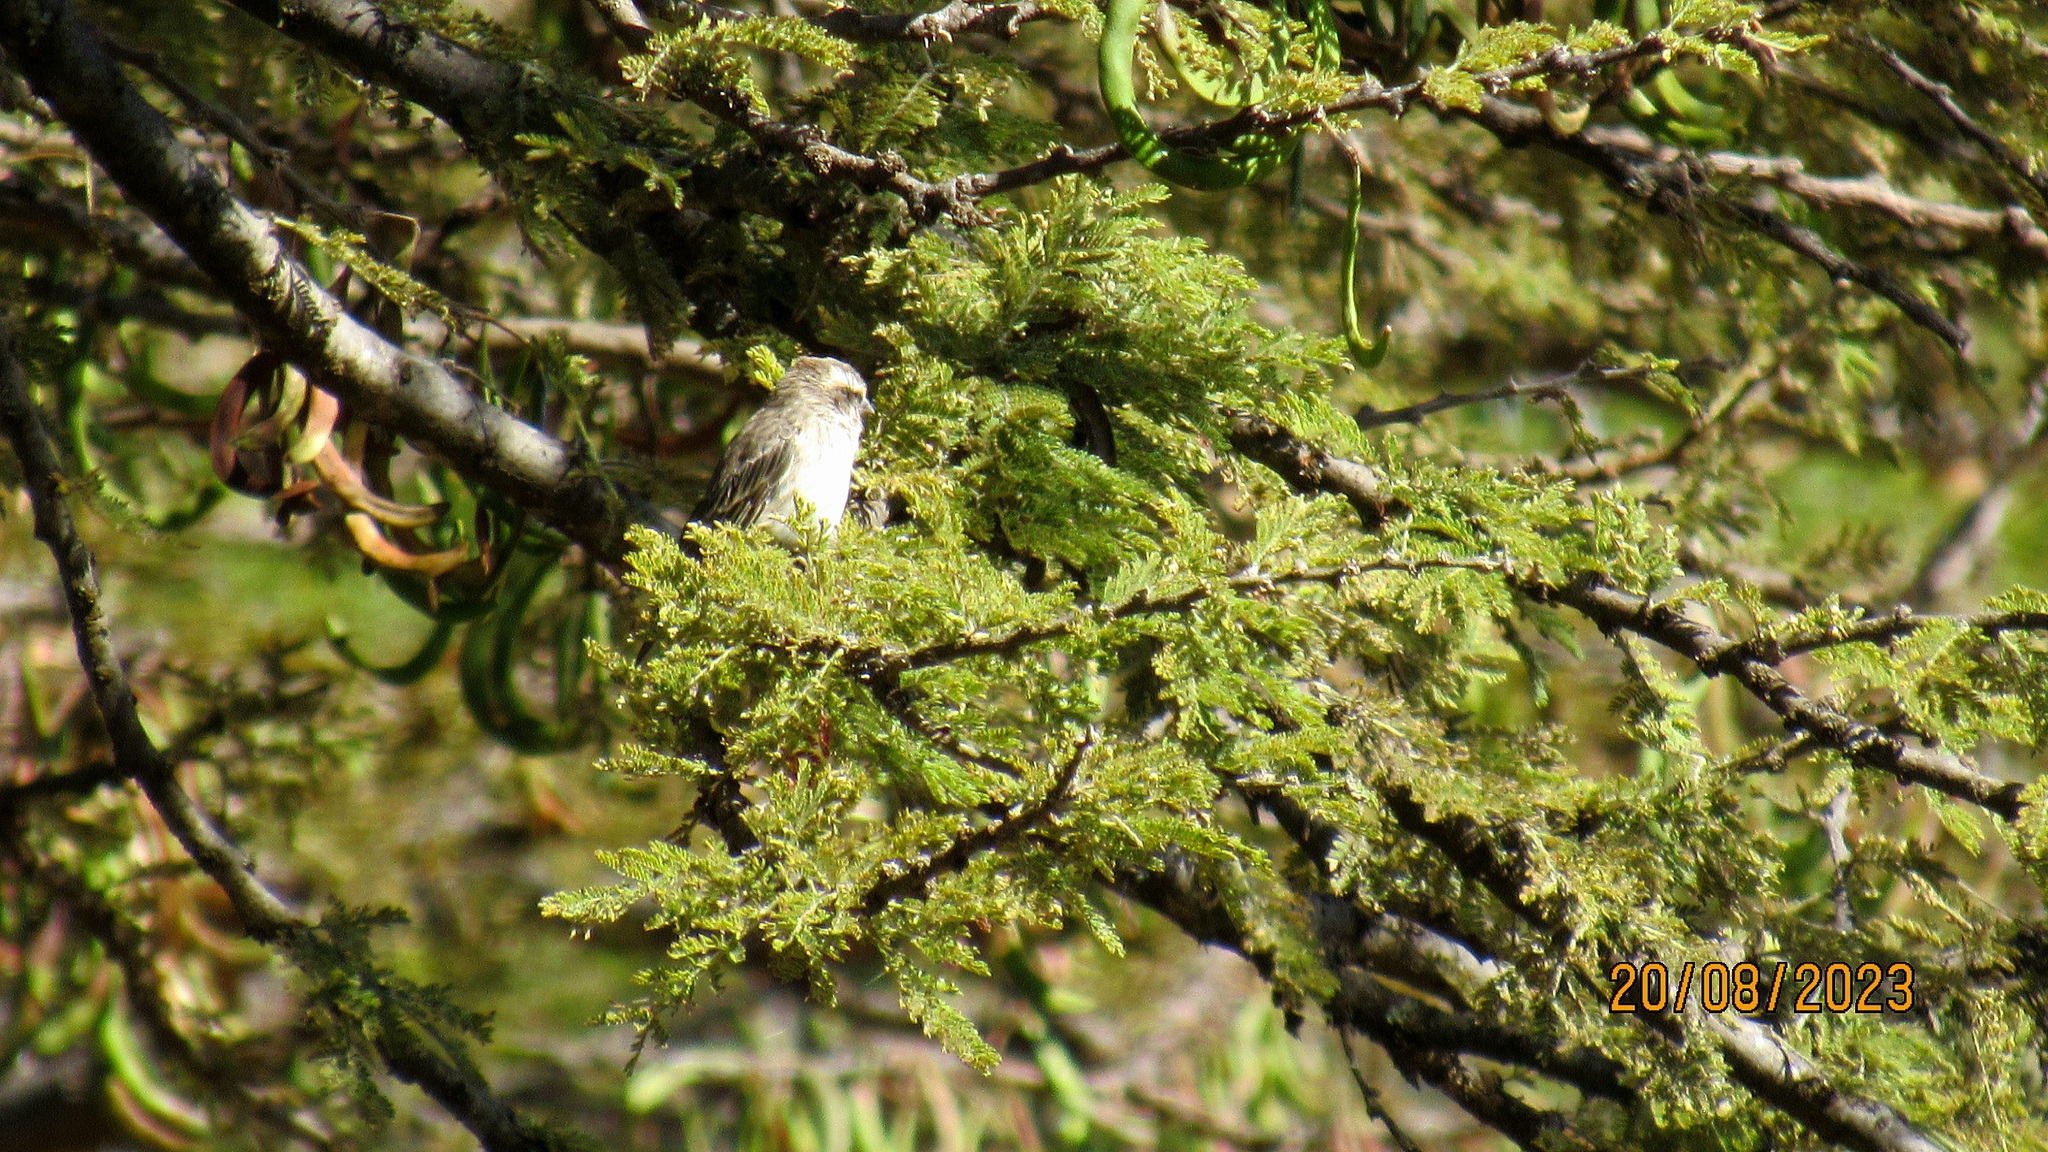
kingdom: Animalia
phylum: Chordata
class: Aves
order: Passeriformes
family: Fringillidae
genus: Crithagra
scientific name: Crithagra reichenowi
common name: Reichenow's seedeater
